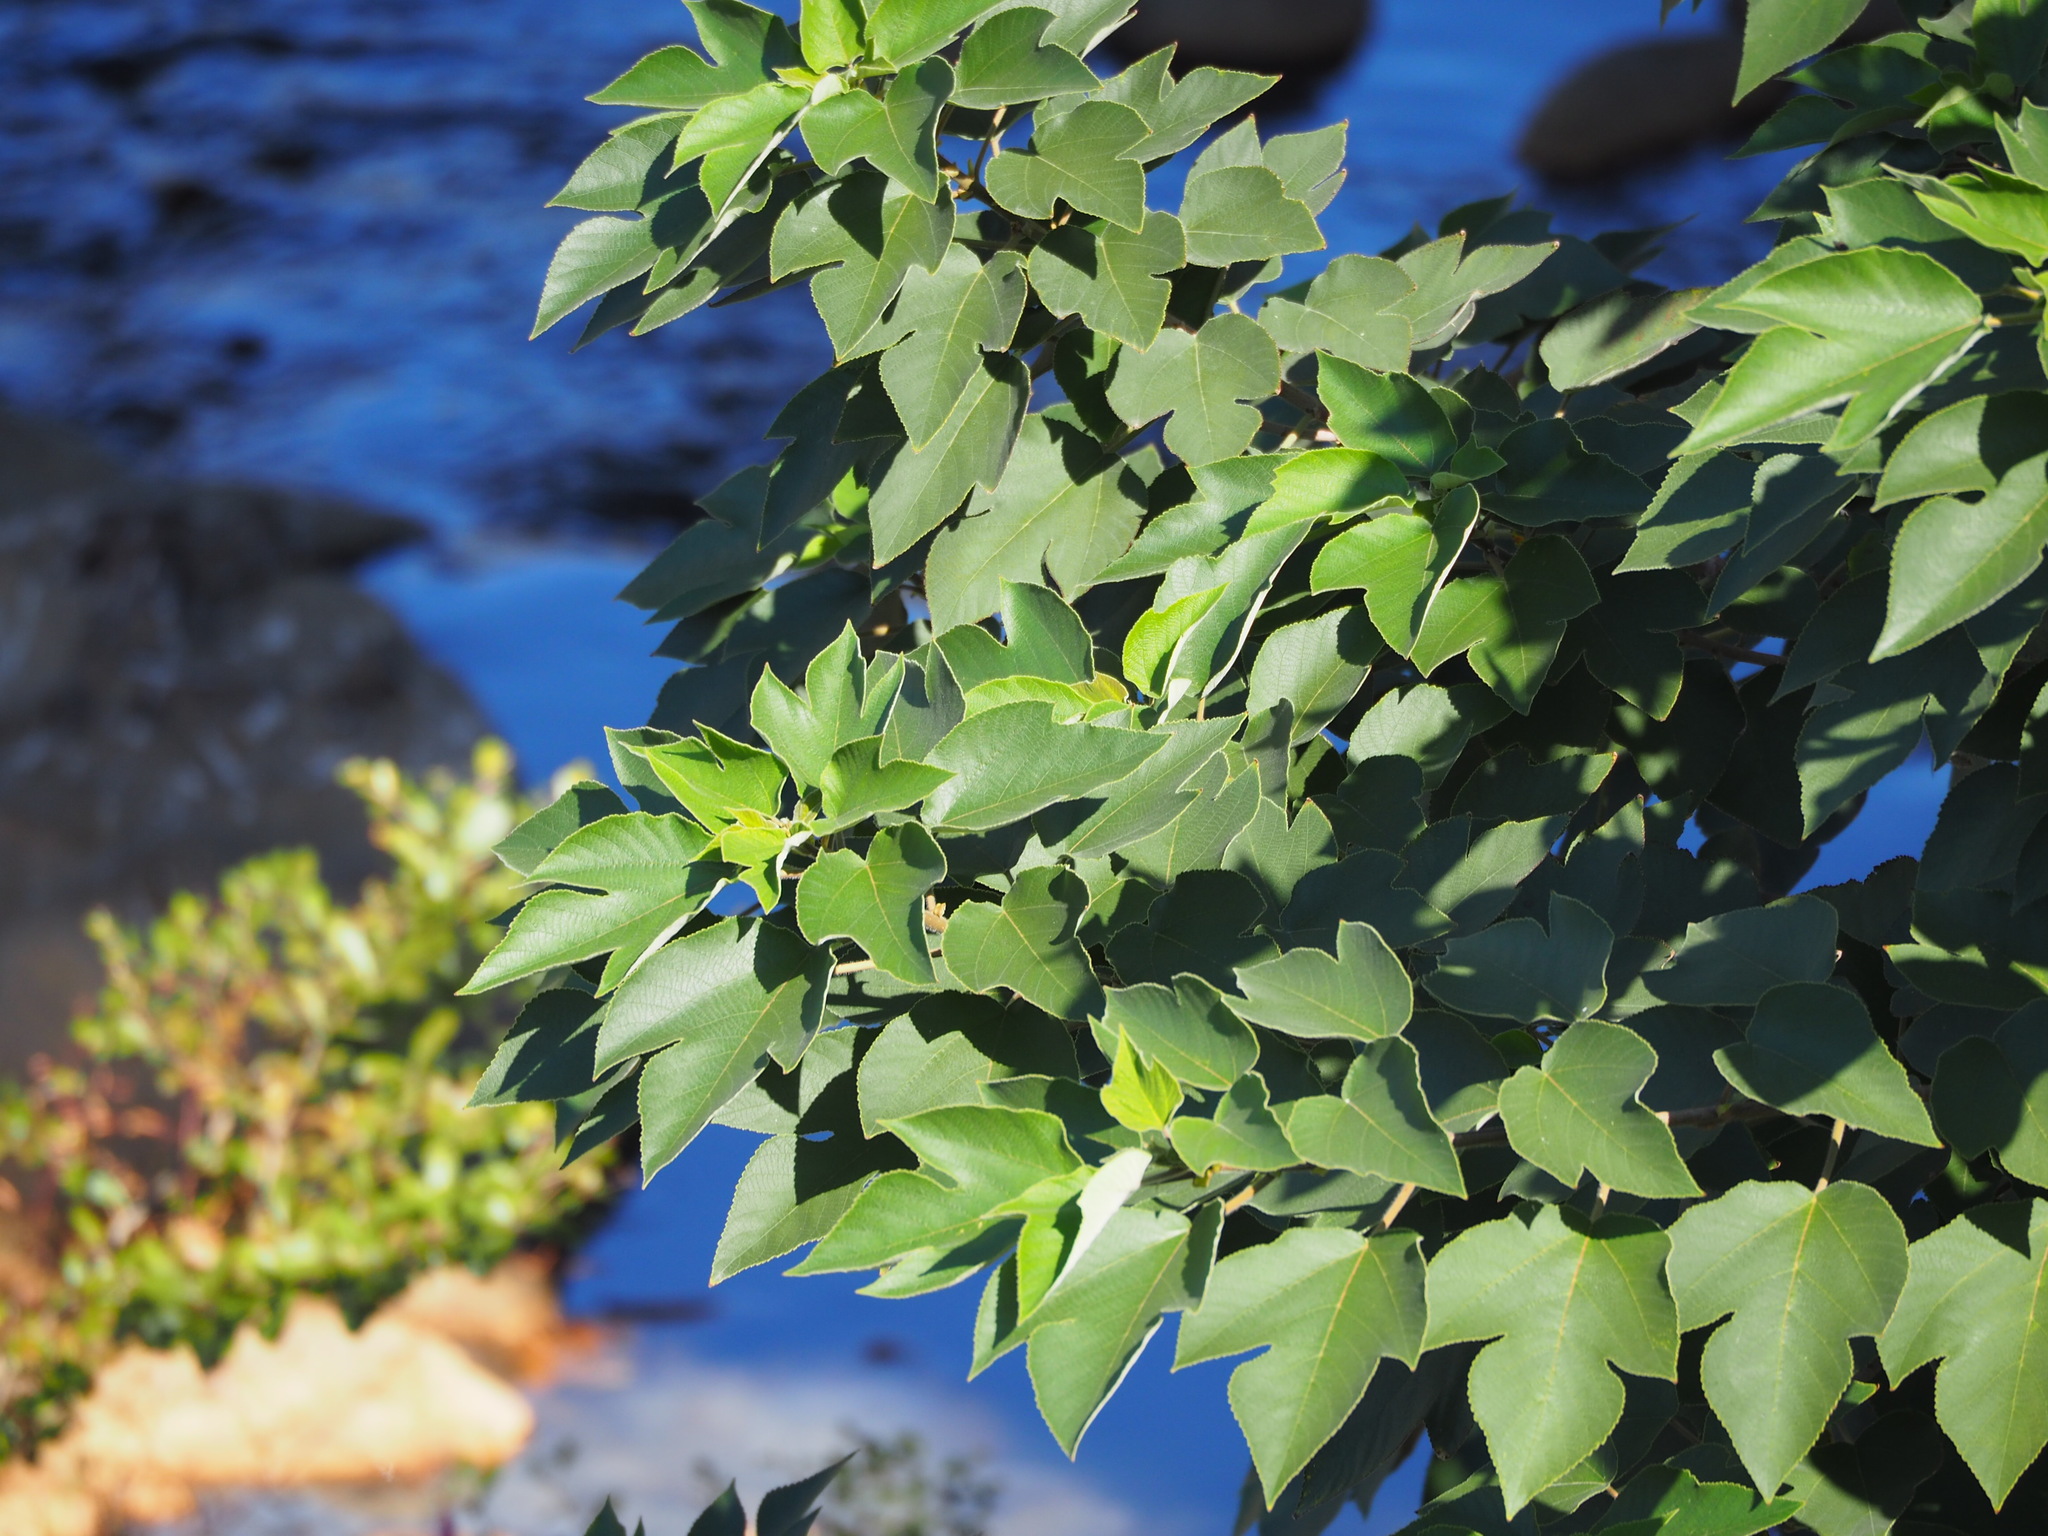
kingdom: Plantae
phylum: Tracheophyta
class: Magnoliopsida
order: Rosales
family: Moraceae
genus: Broussonetia
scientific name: Broussonetia papyrifera
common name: Paper mulberry
